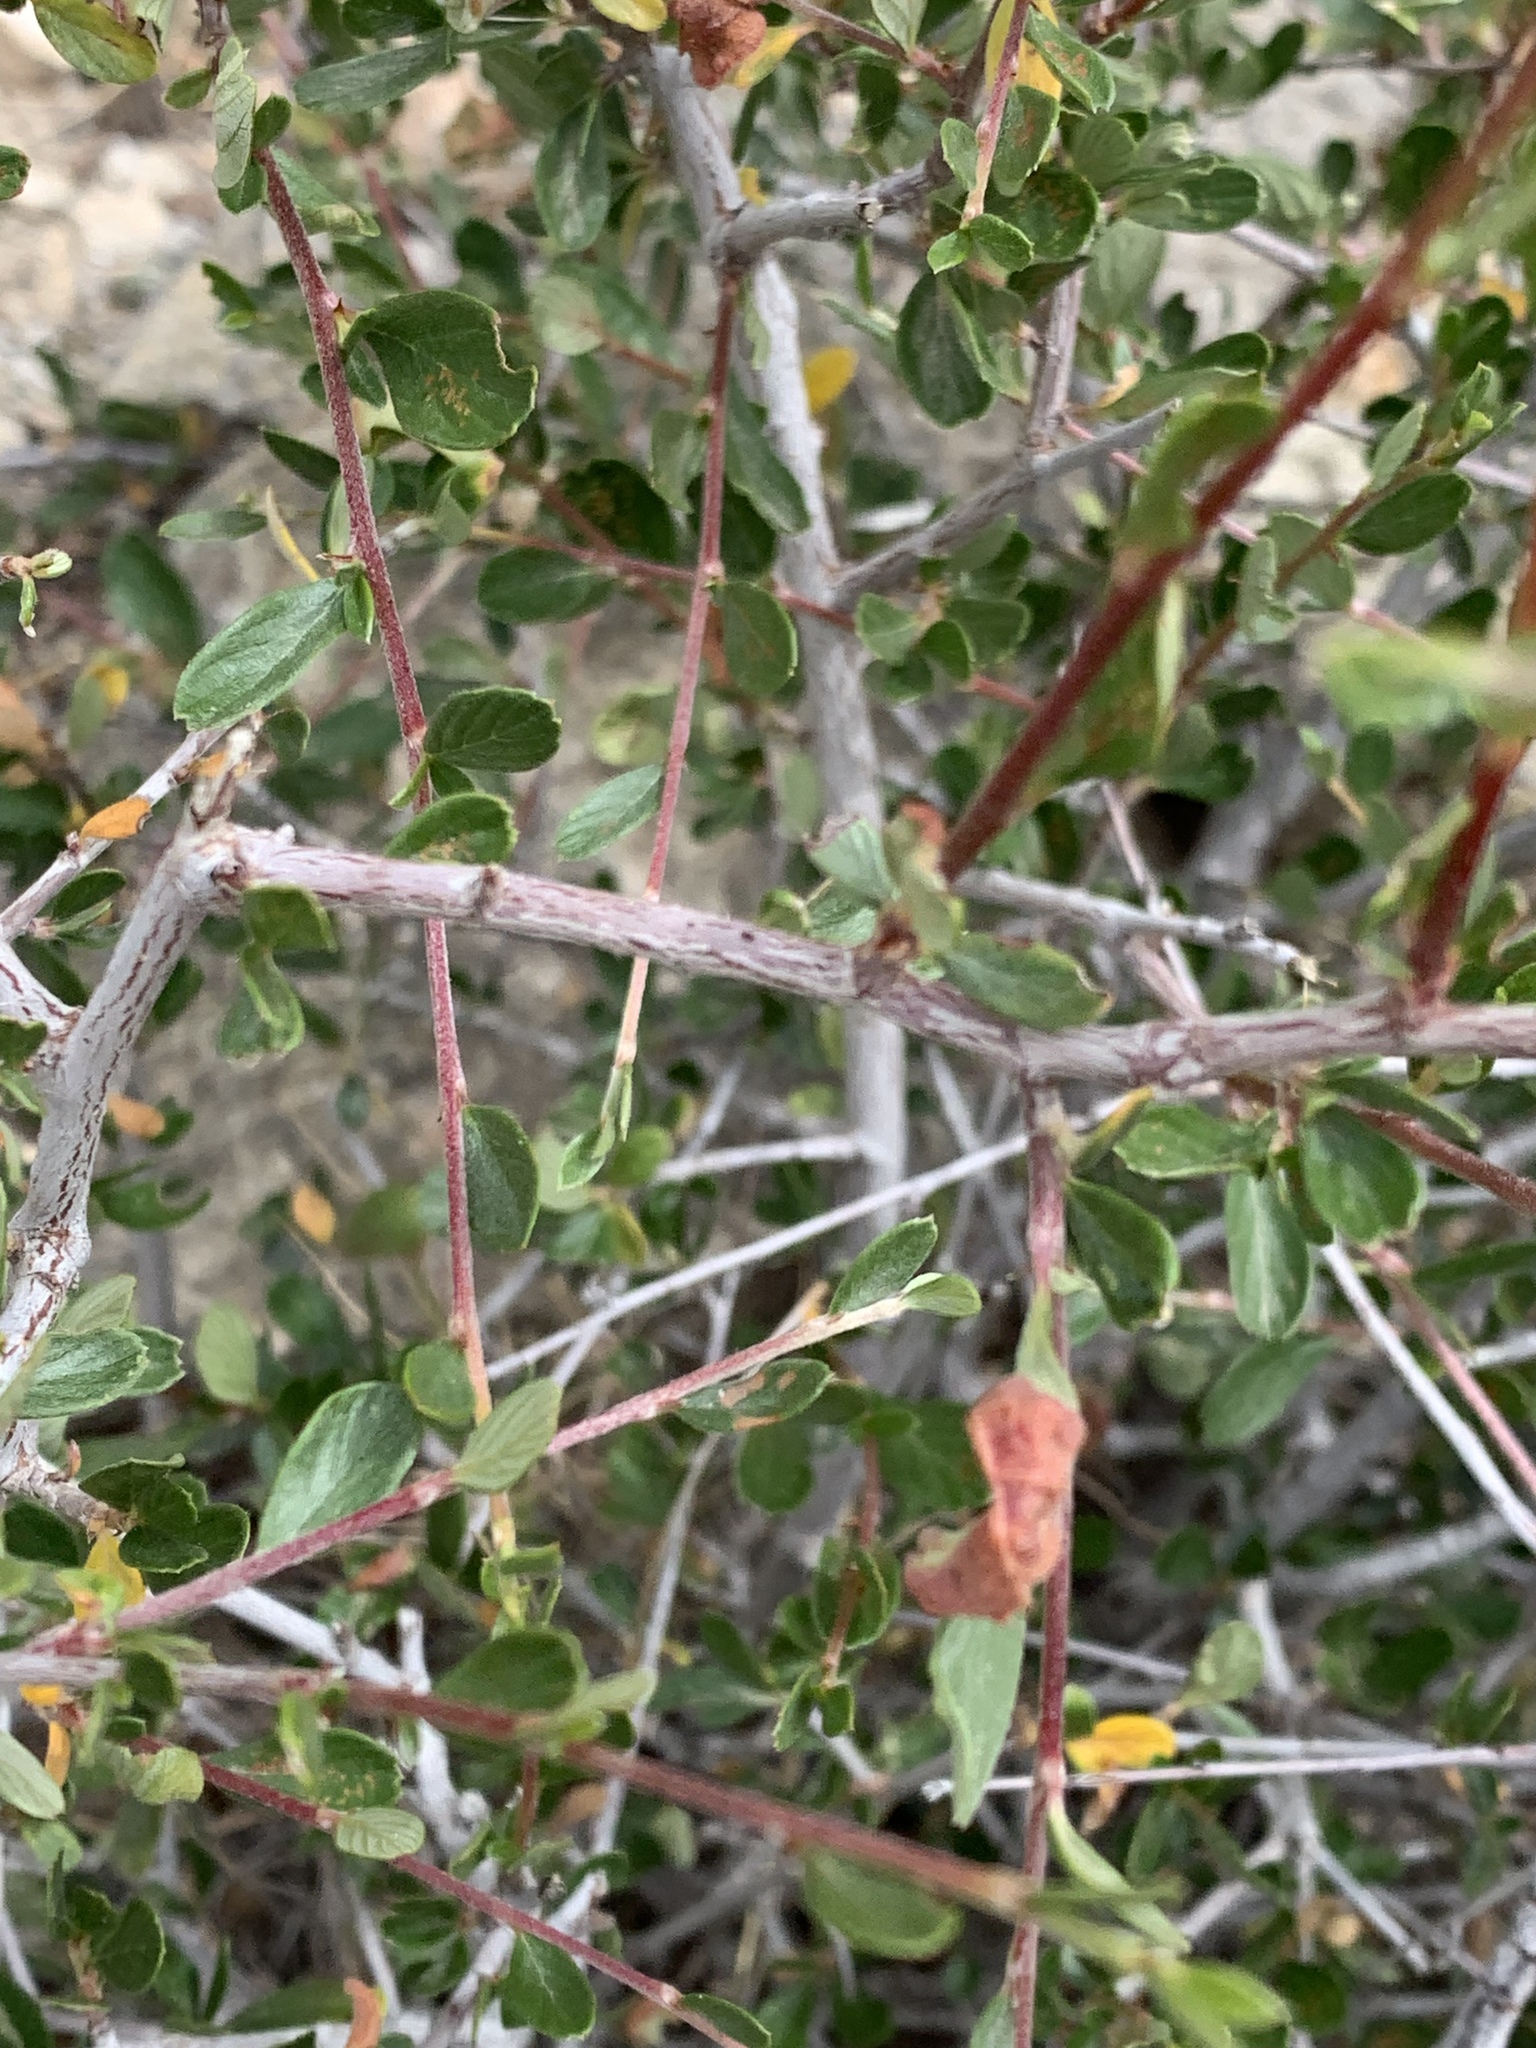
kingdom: Plantae
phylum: Tracheophyta
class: Magnoliopsida
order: Rosales
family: Rosaceae
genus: Cercocarpus
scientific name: Cercocarpus breviflorus
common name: Wright's mountain-mahogany
